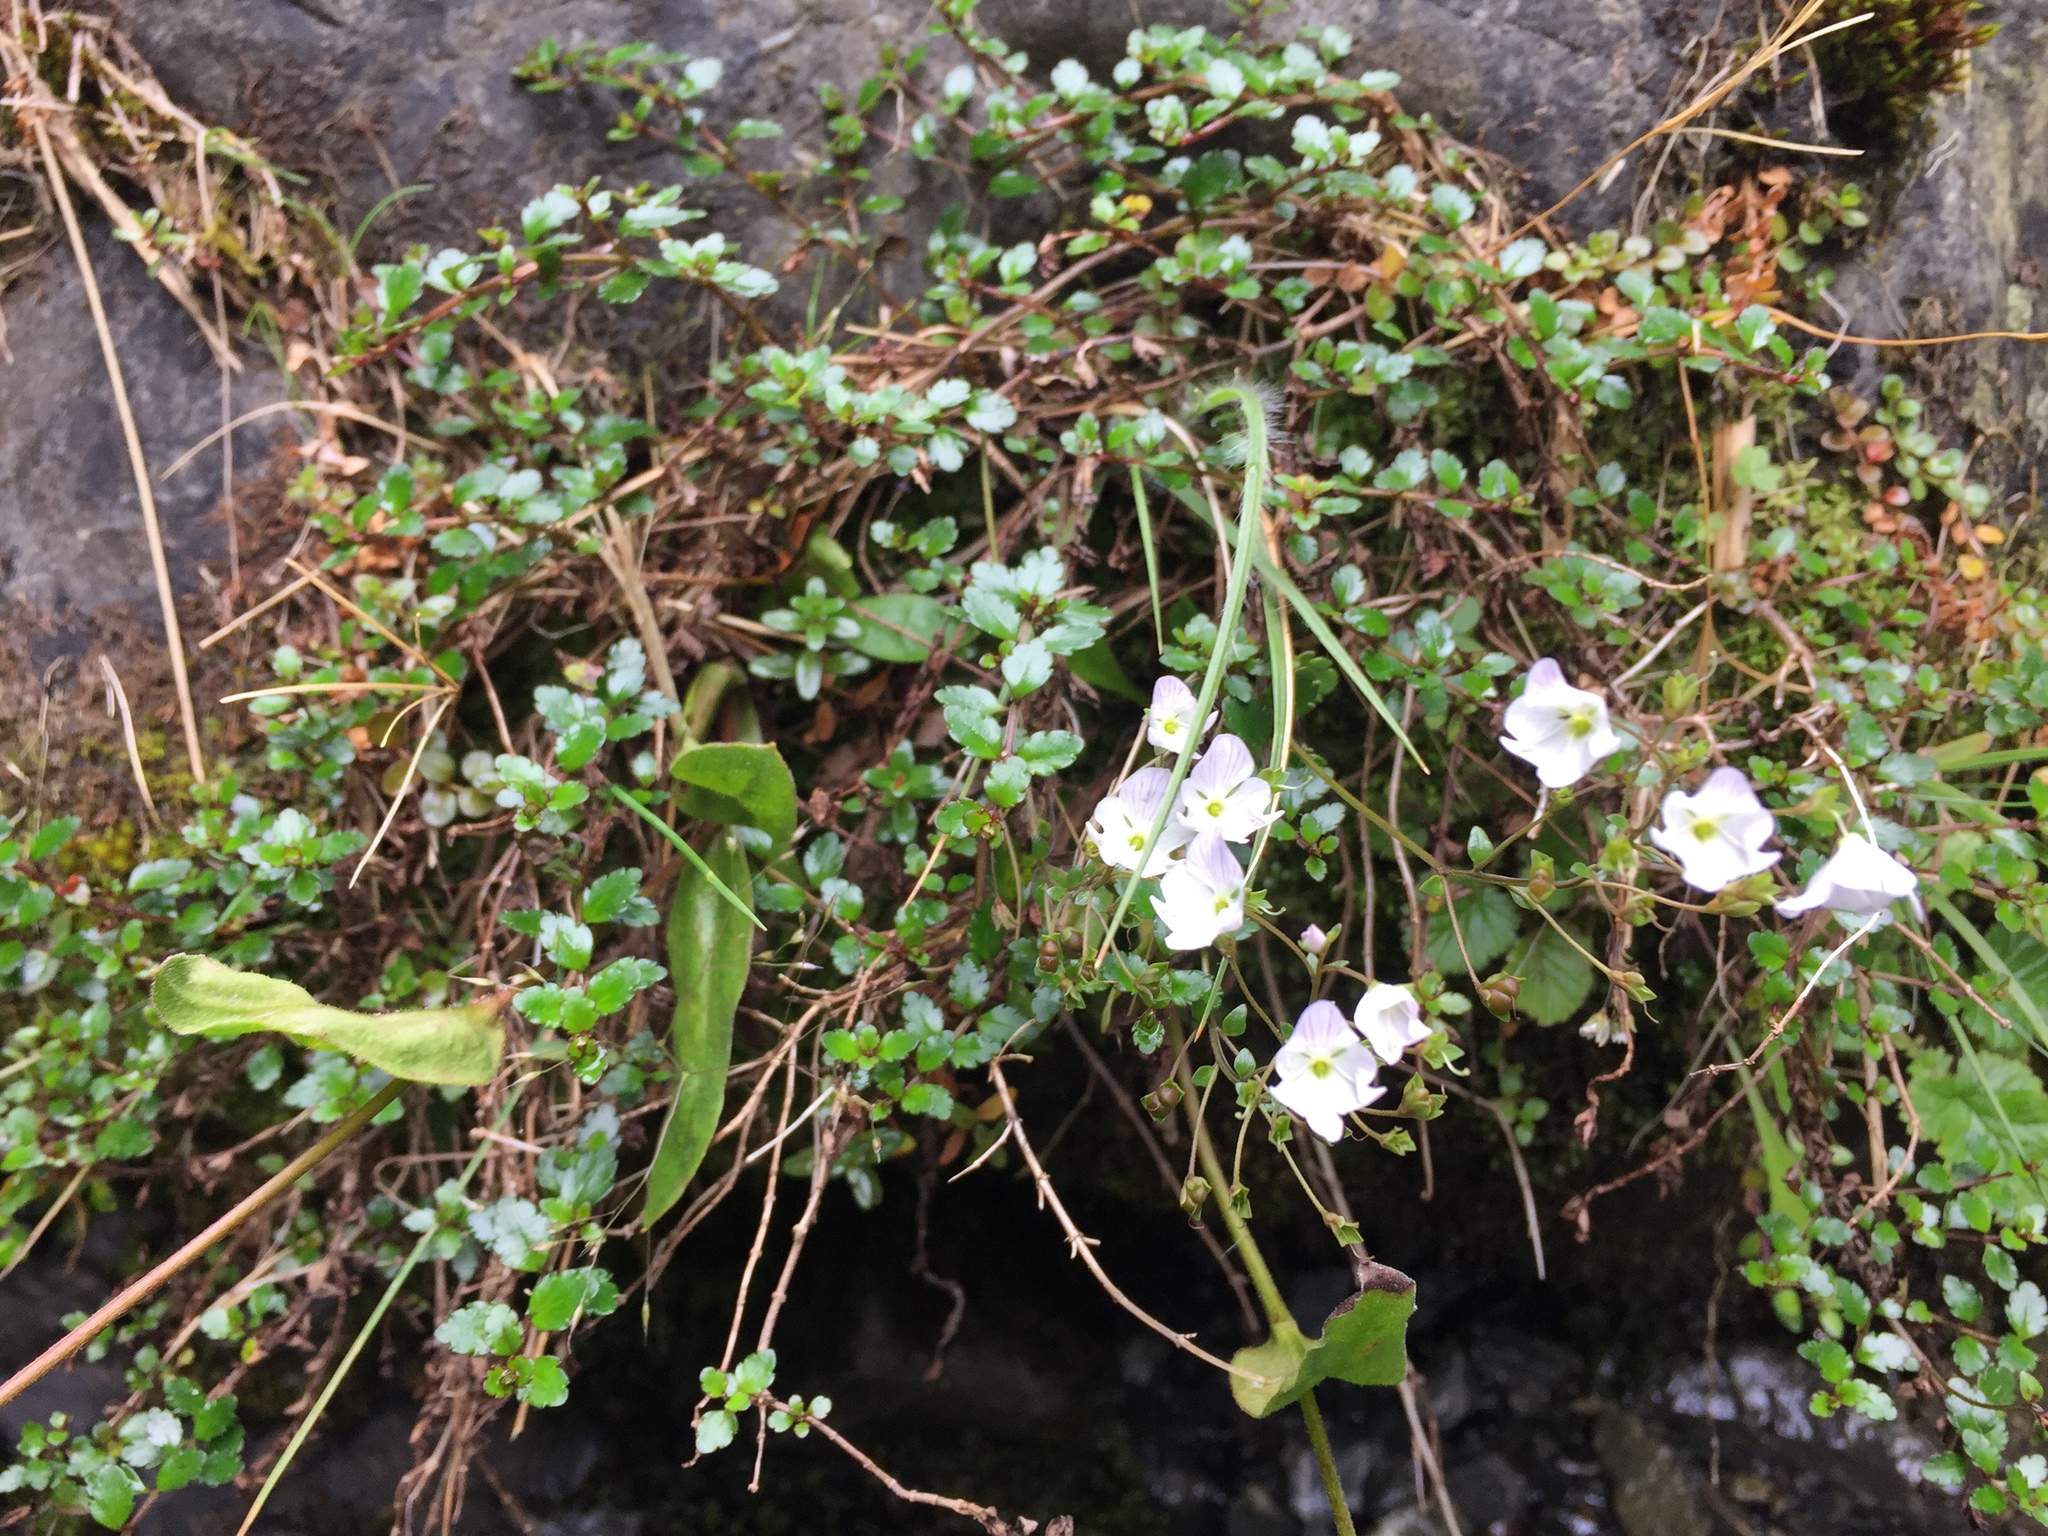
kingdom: Plantae
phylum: Tracheophyta
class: Magnoliopsida
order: Lamiales
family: Plantaginaceae
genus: Veronica
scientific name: Veronica lyallii
